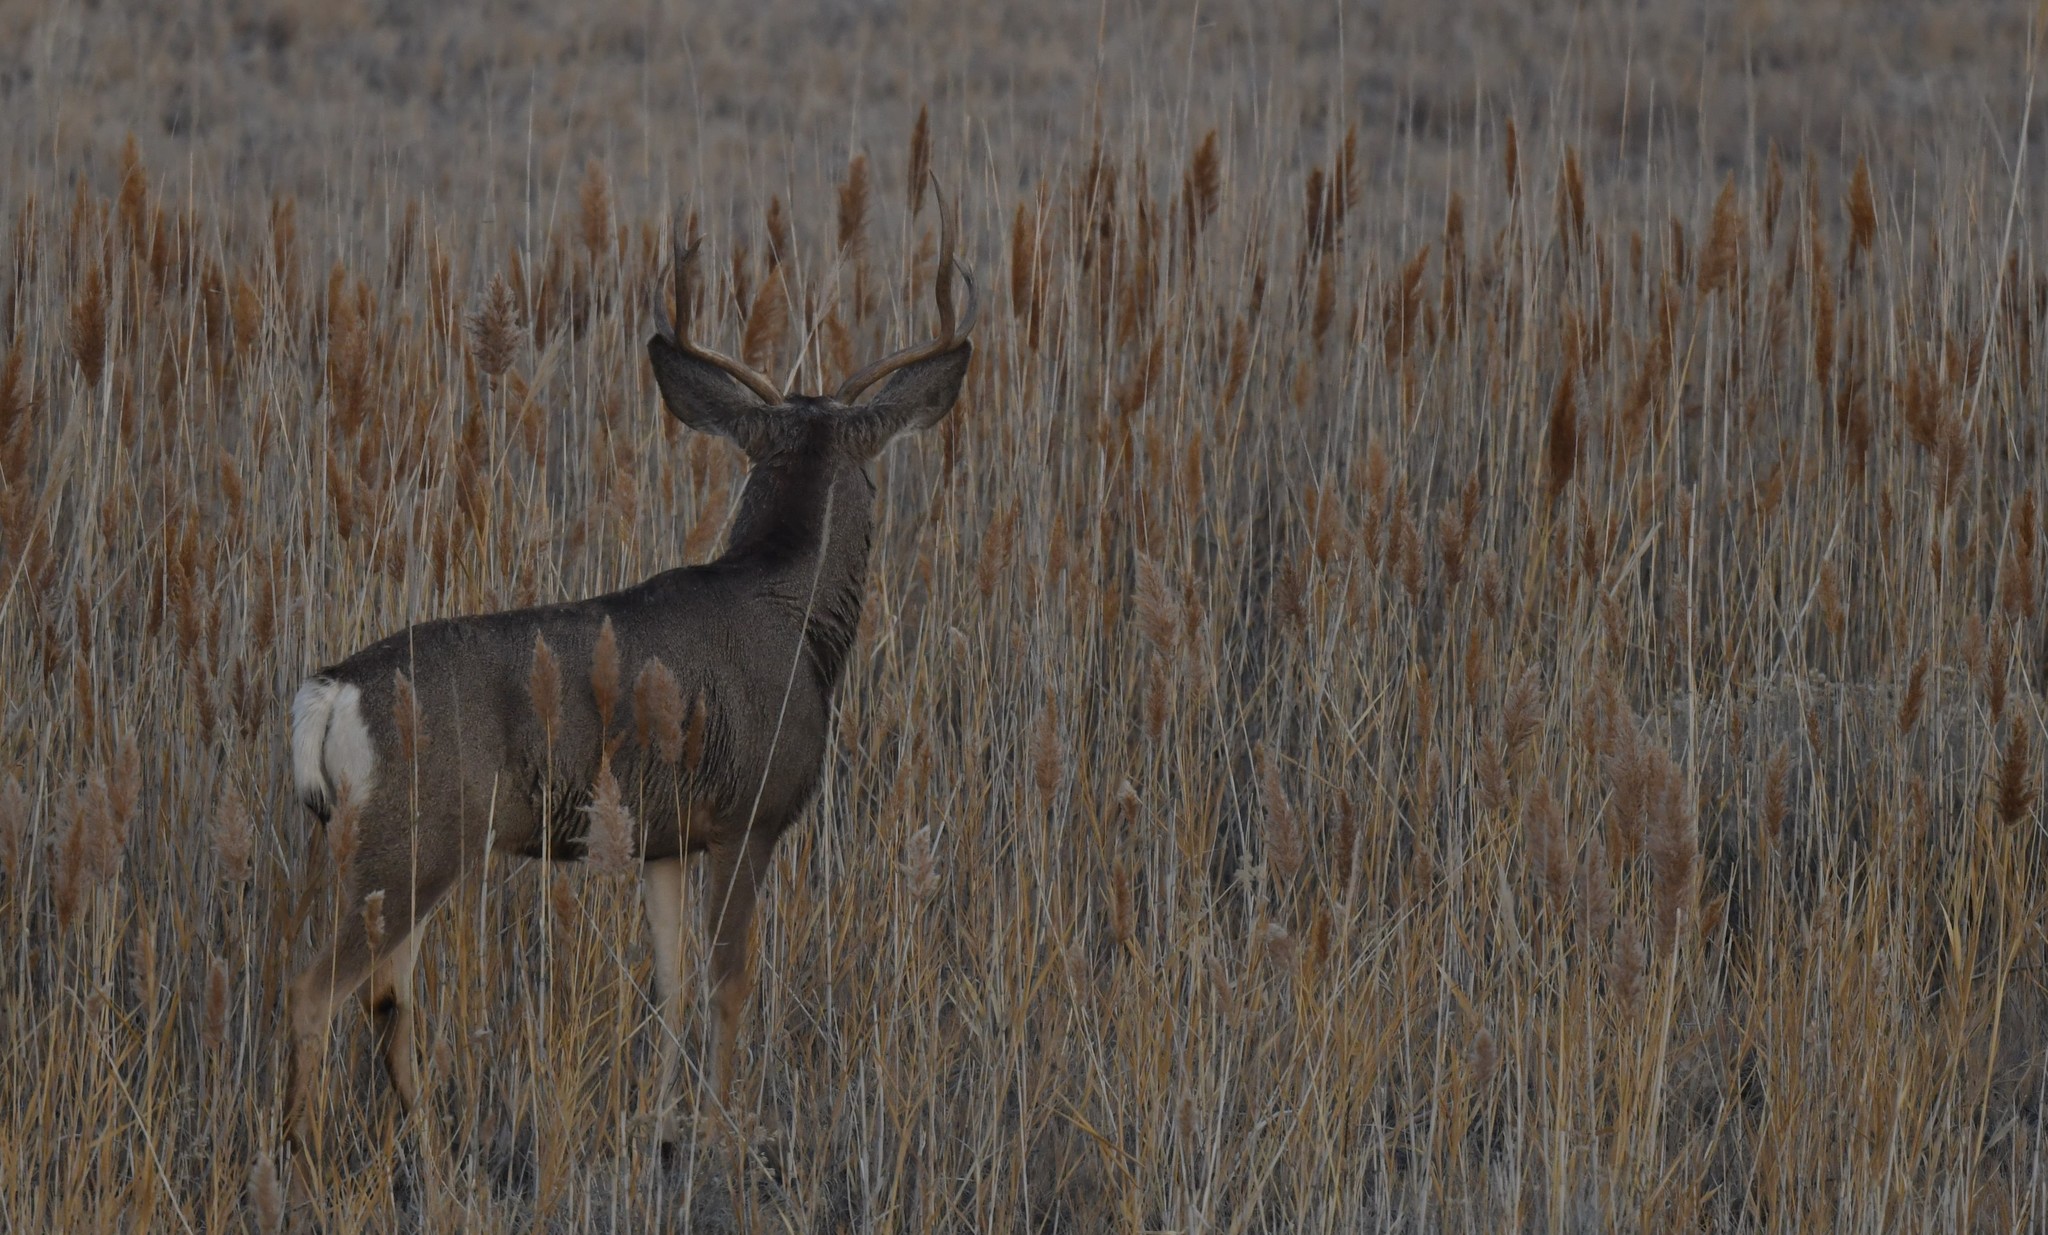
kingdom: Animalia
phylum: Chordata
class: Mammalia
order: Artiodactyla
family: Cervidae
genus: Odocoileus
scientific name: Odocoileus hemionus
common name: Mule deer
